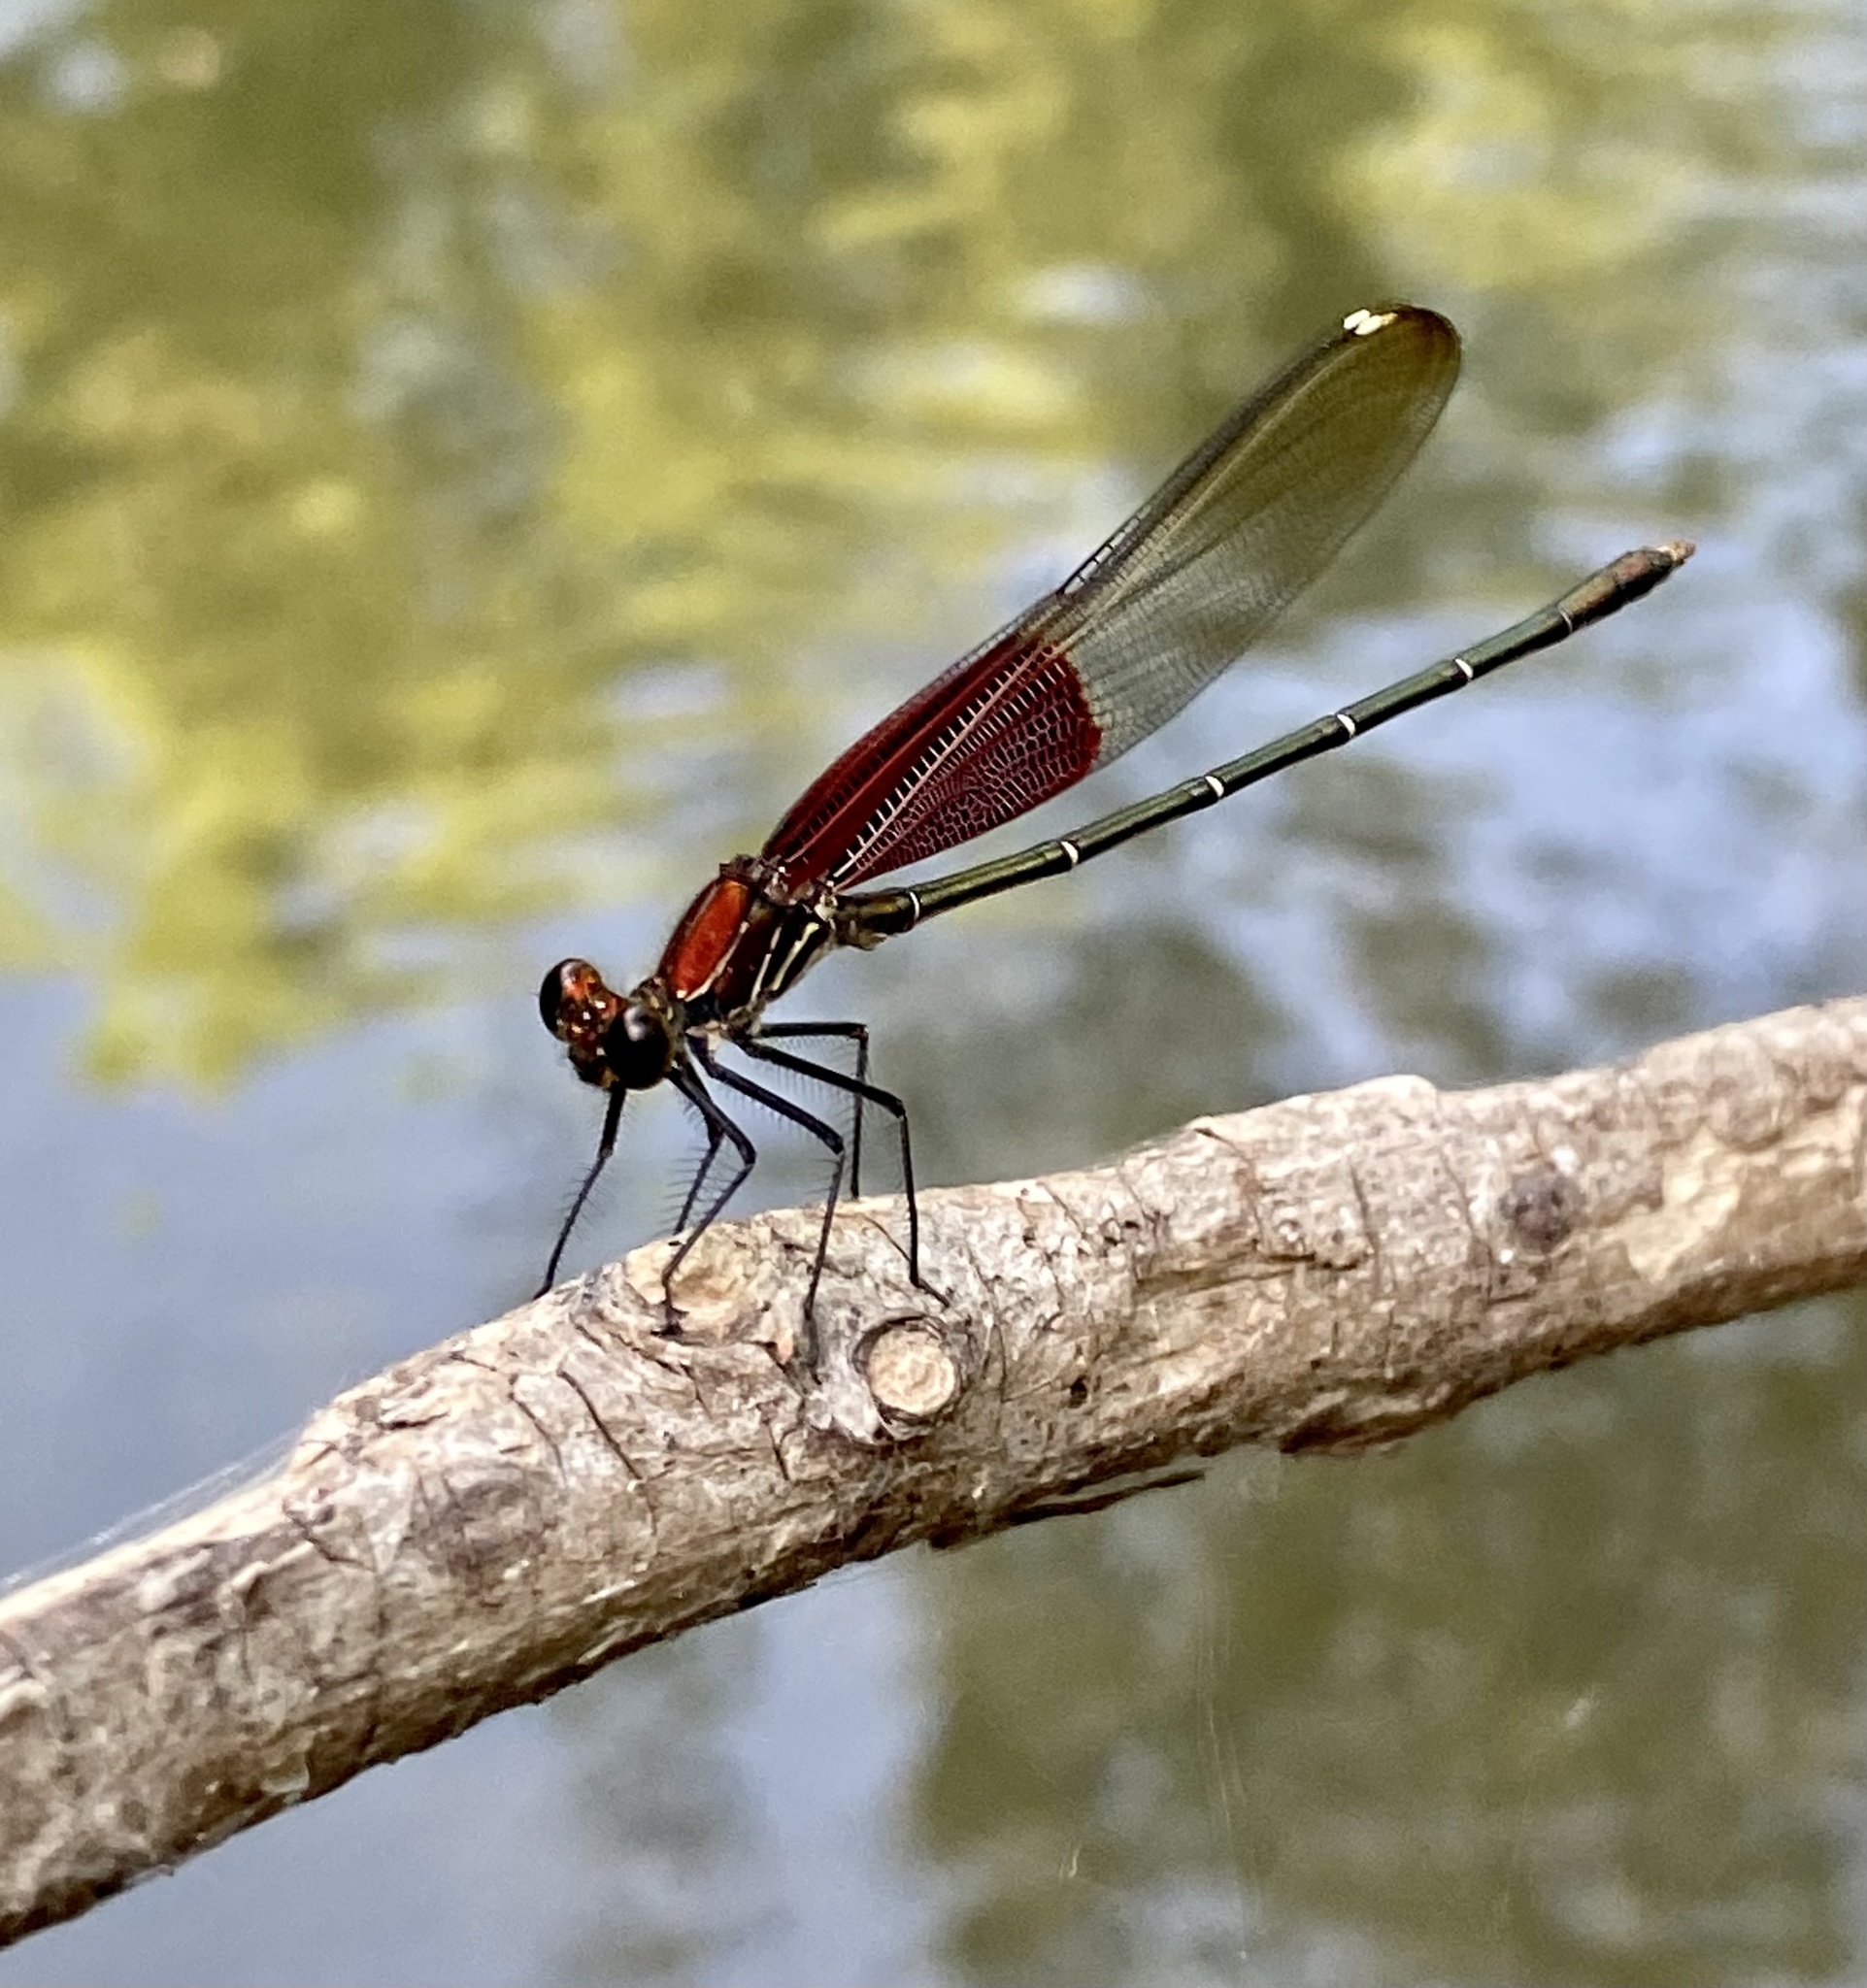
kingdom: Animalia
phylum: Arthropoda
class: Insecta
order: Odonata
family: Calopterygidae
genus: Hetaerina
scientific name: Hetaerina americana
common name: American rubyspot
